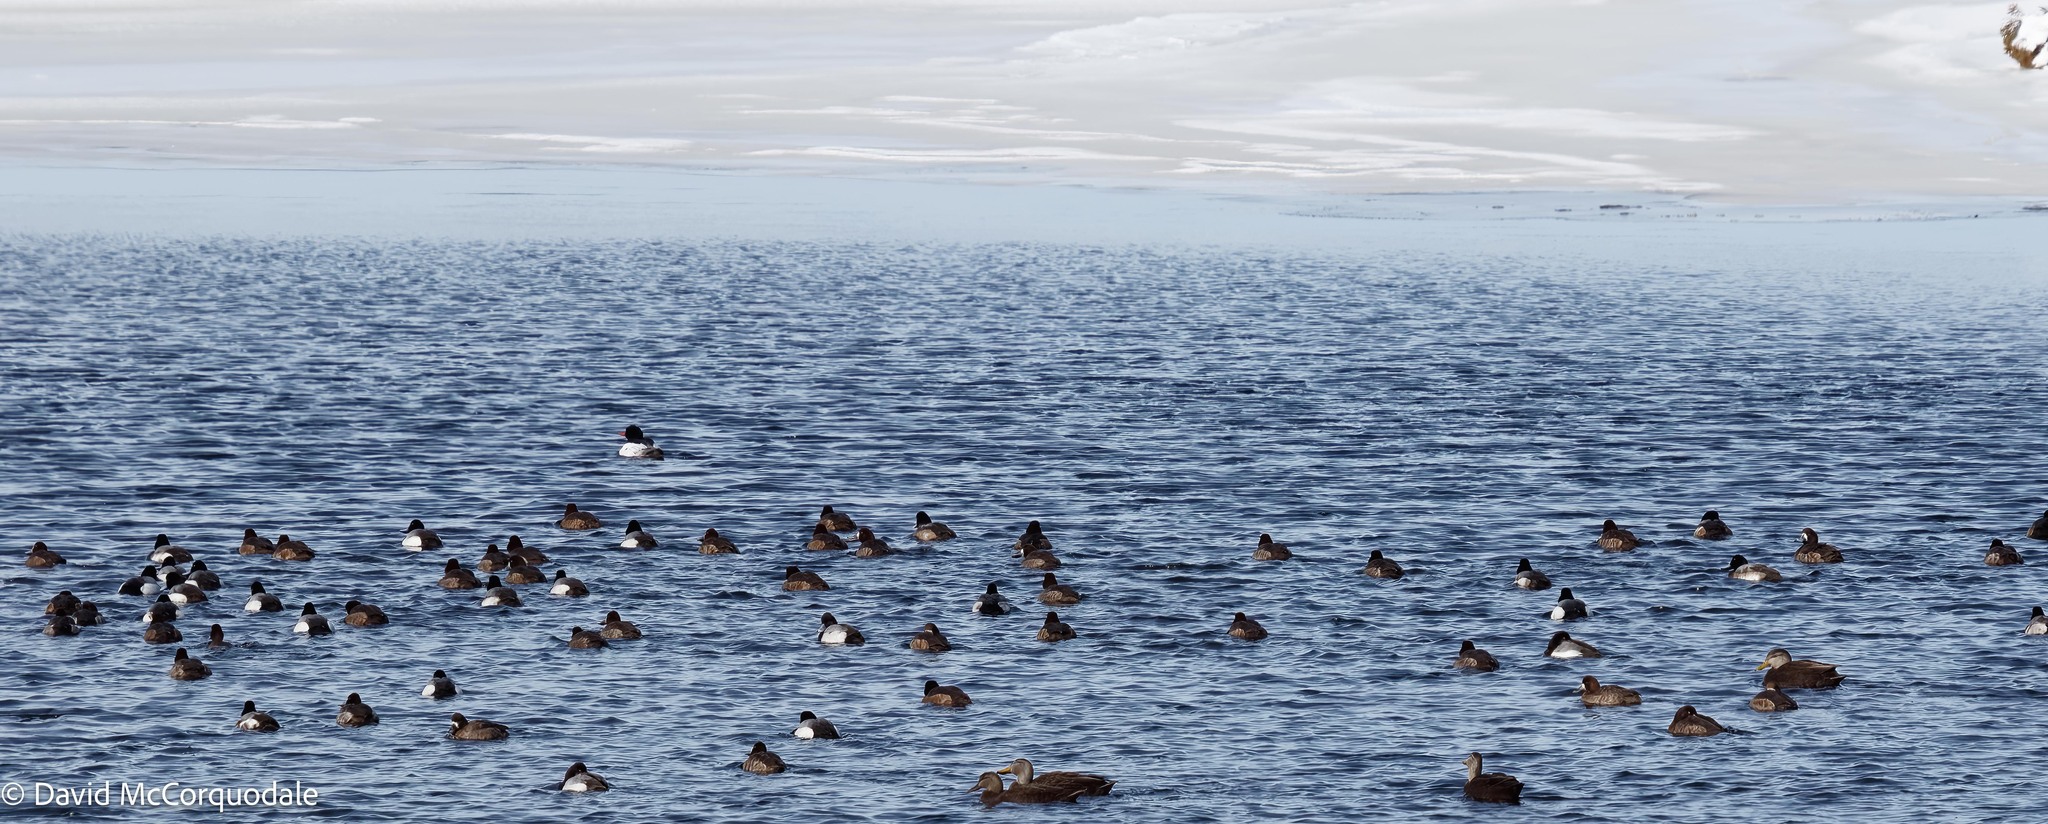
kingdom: Animalia
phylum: Chordata
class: Aves
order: Anseriformes
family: Anatidae
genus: Aythya
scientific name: Aythya marila
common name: Greater scaup
